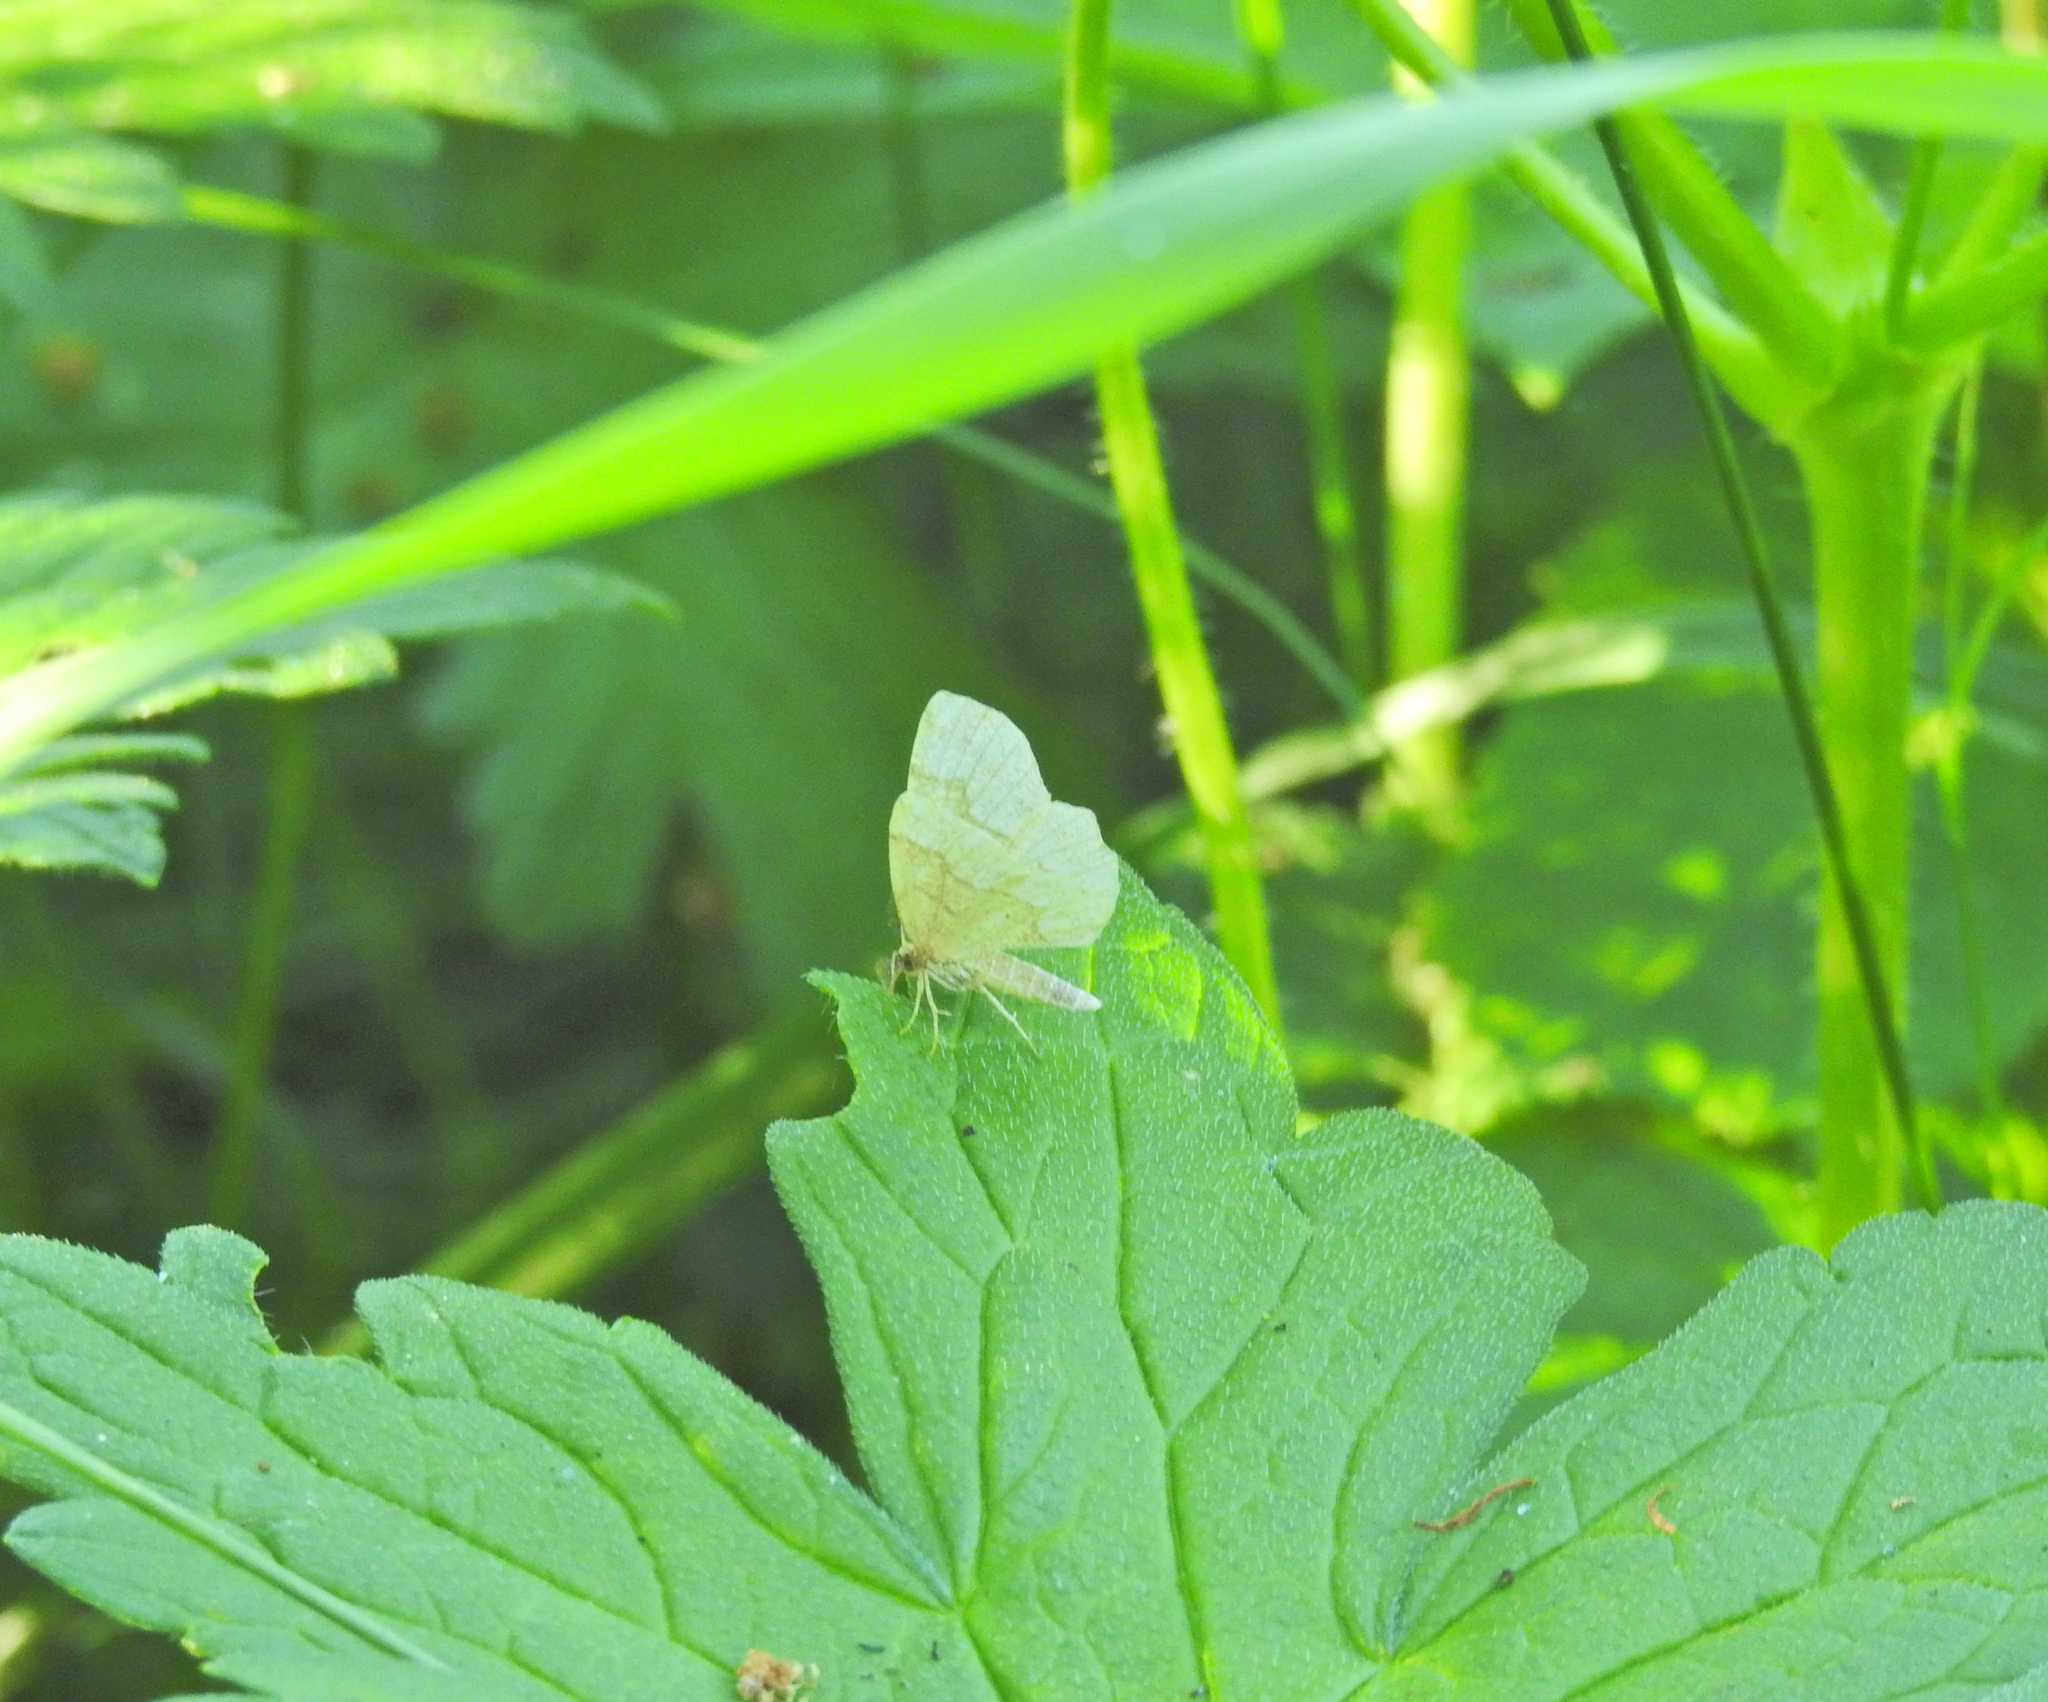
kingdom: Animalia
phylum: Arthropoda
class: Insecta
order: Lepidoptera
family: Geometridae
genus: Cepphis
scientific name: Cepphis advenaria
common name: Little thorn
